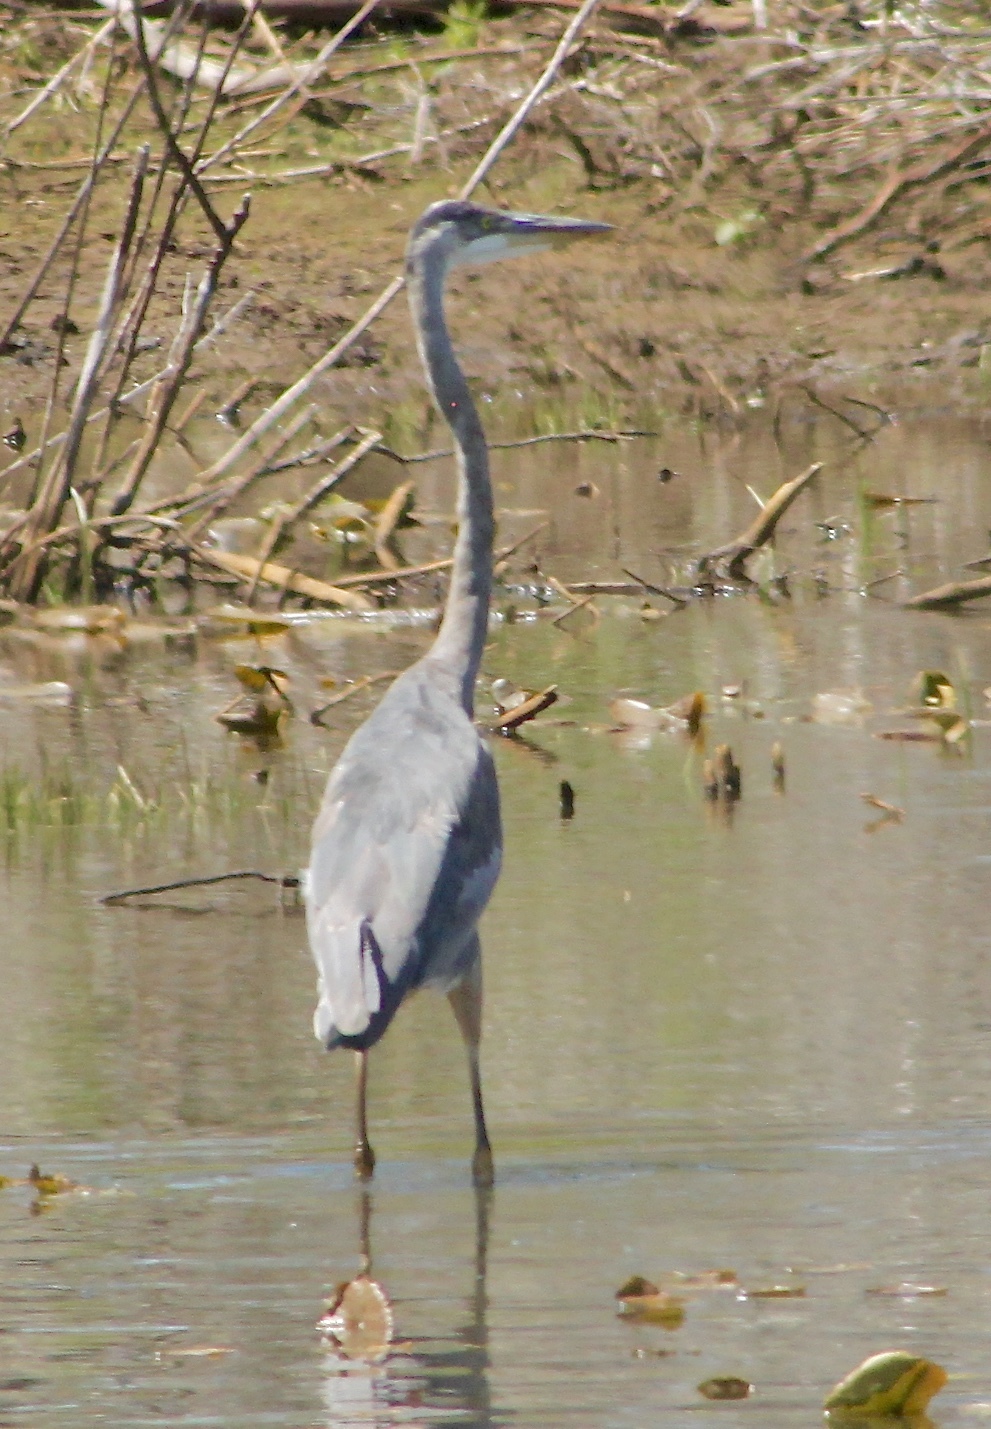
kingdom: Animalia
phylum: Chordata
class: Aves
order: Pelecaniformes
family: Ardeidae
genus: Ardea
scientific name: Ardea herodias
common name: Great blue heron
